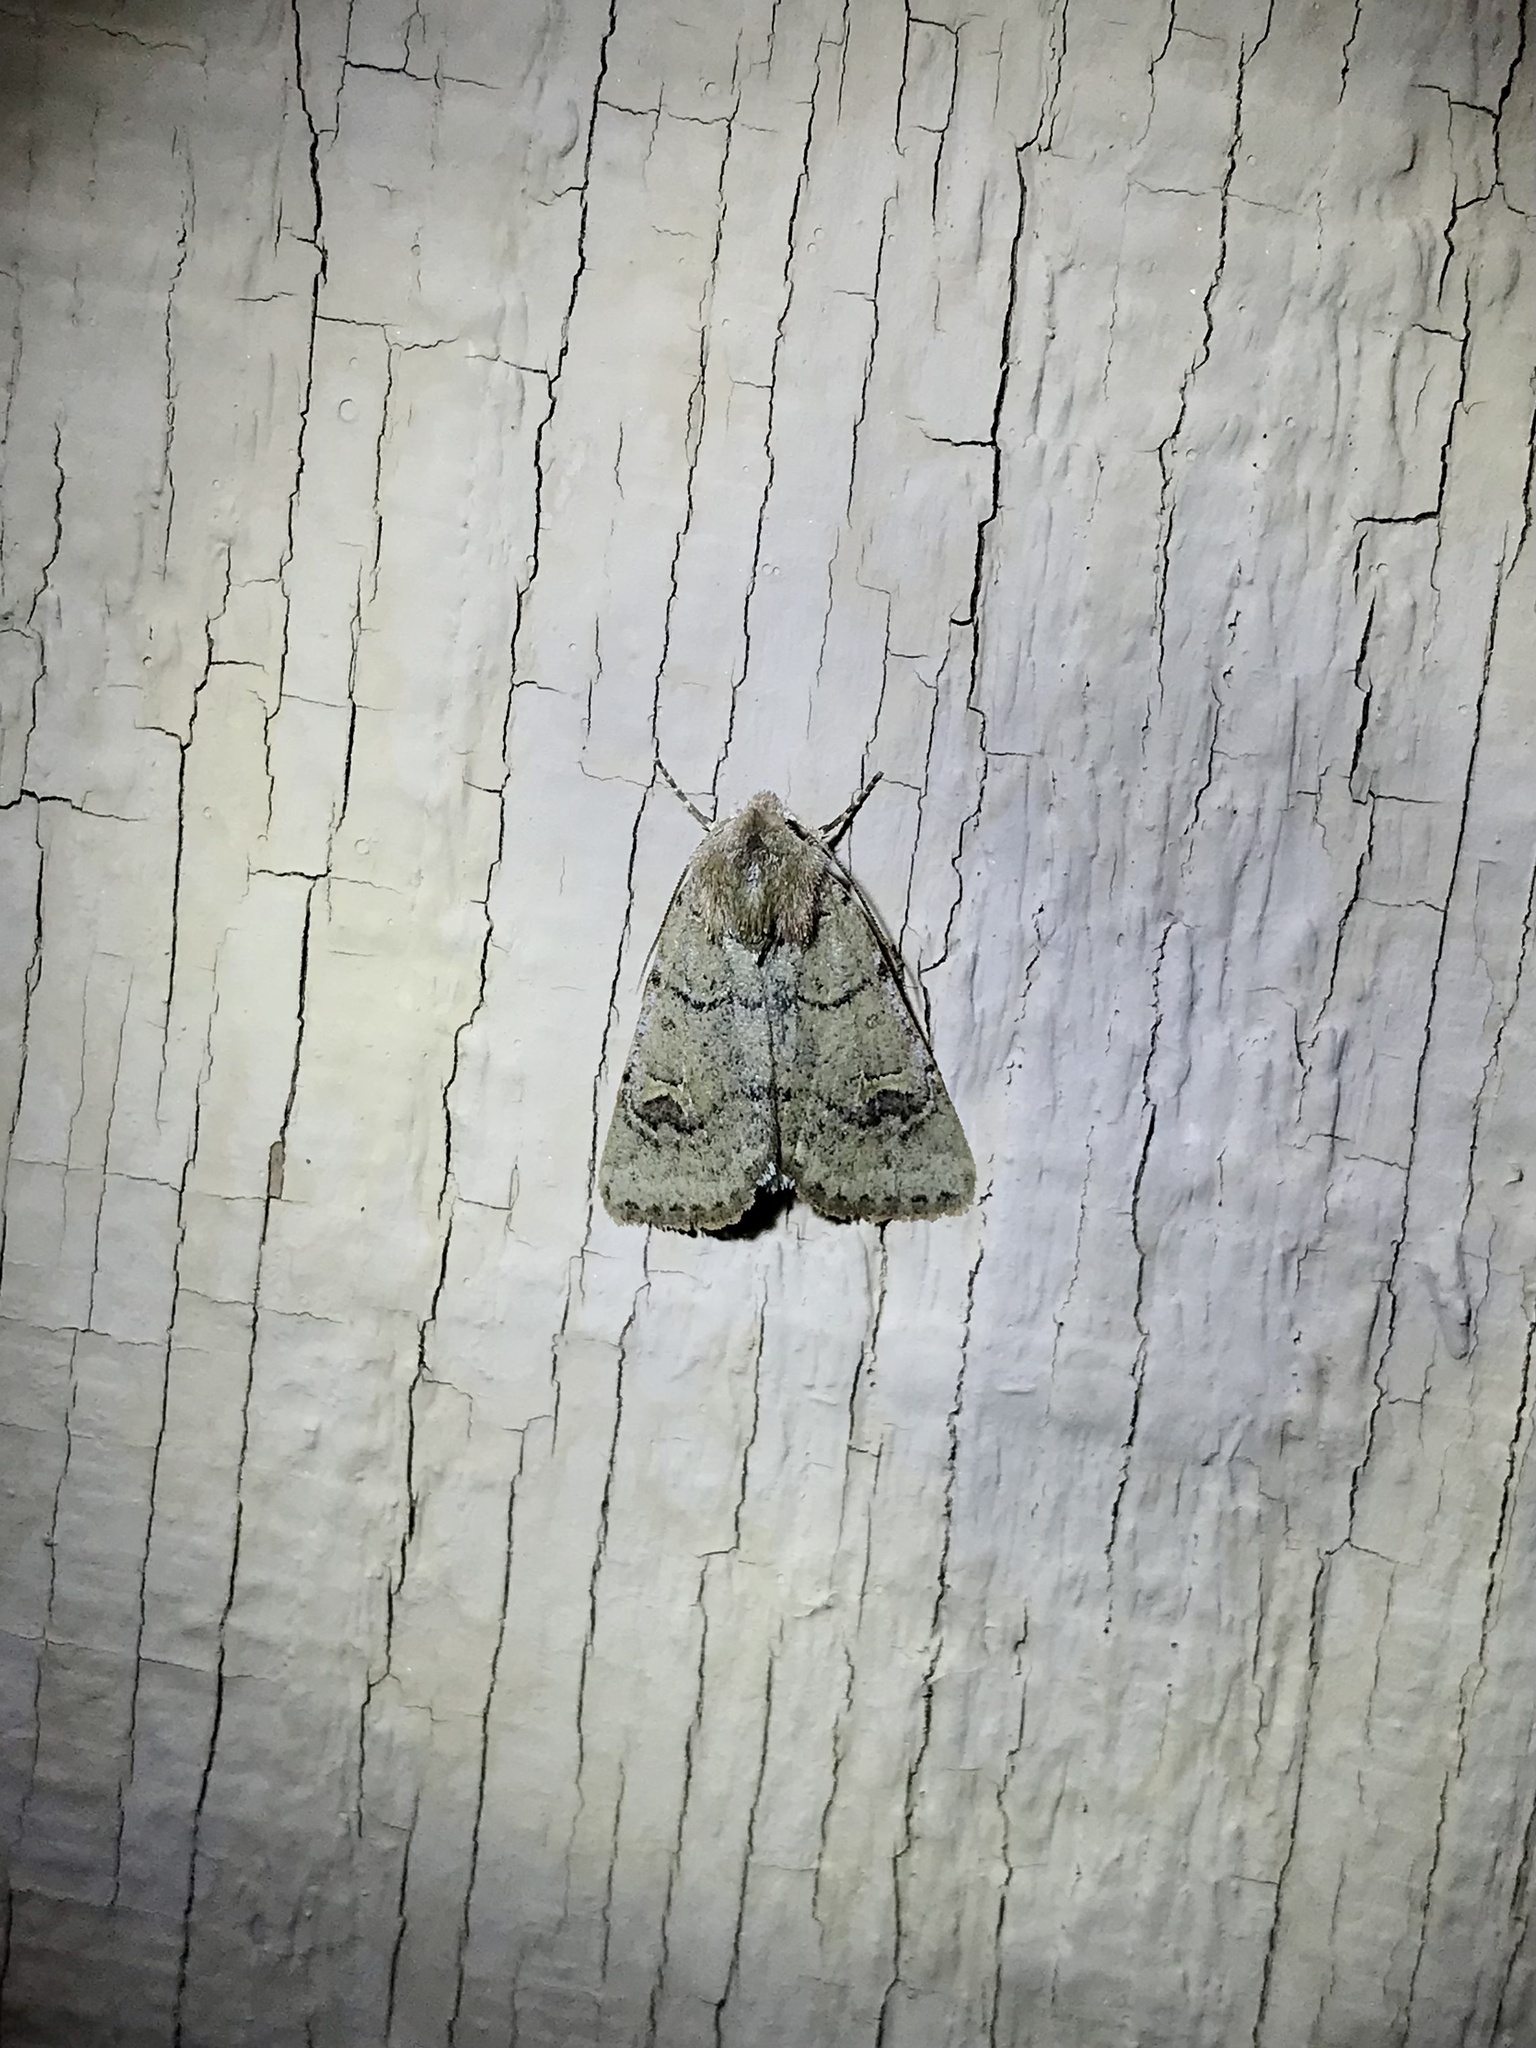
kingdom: Animalia
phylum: Arthropoda
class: Insecta
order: Lepidoptera
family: Noctuidae
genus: Eucoptocnemis
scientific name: Eucoptocnemis fimbriaris
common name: Fringed dart
